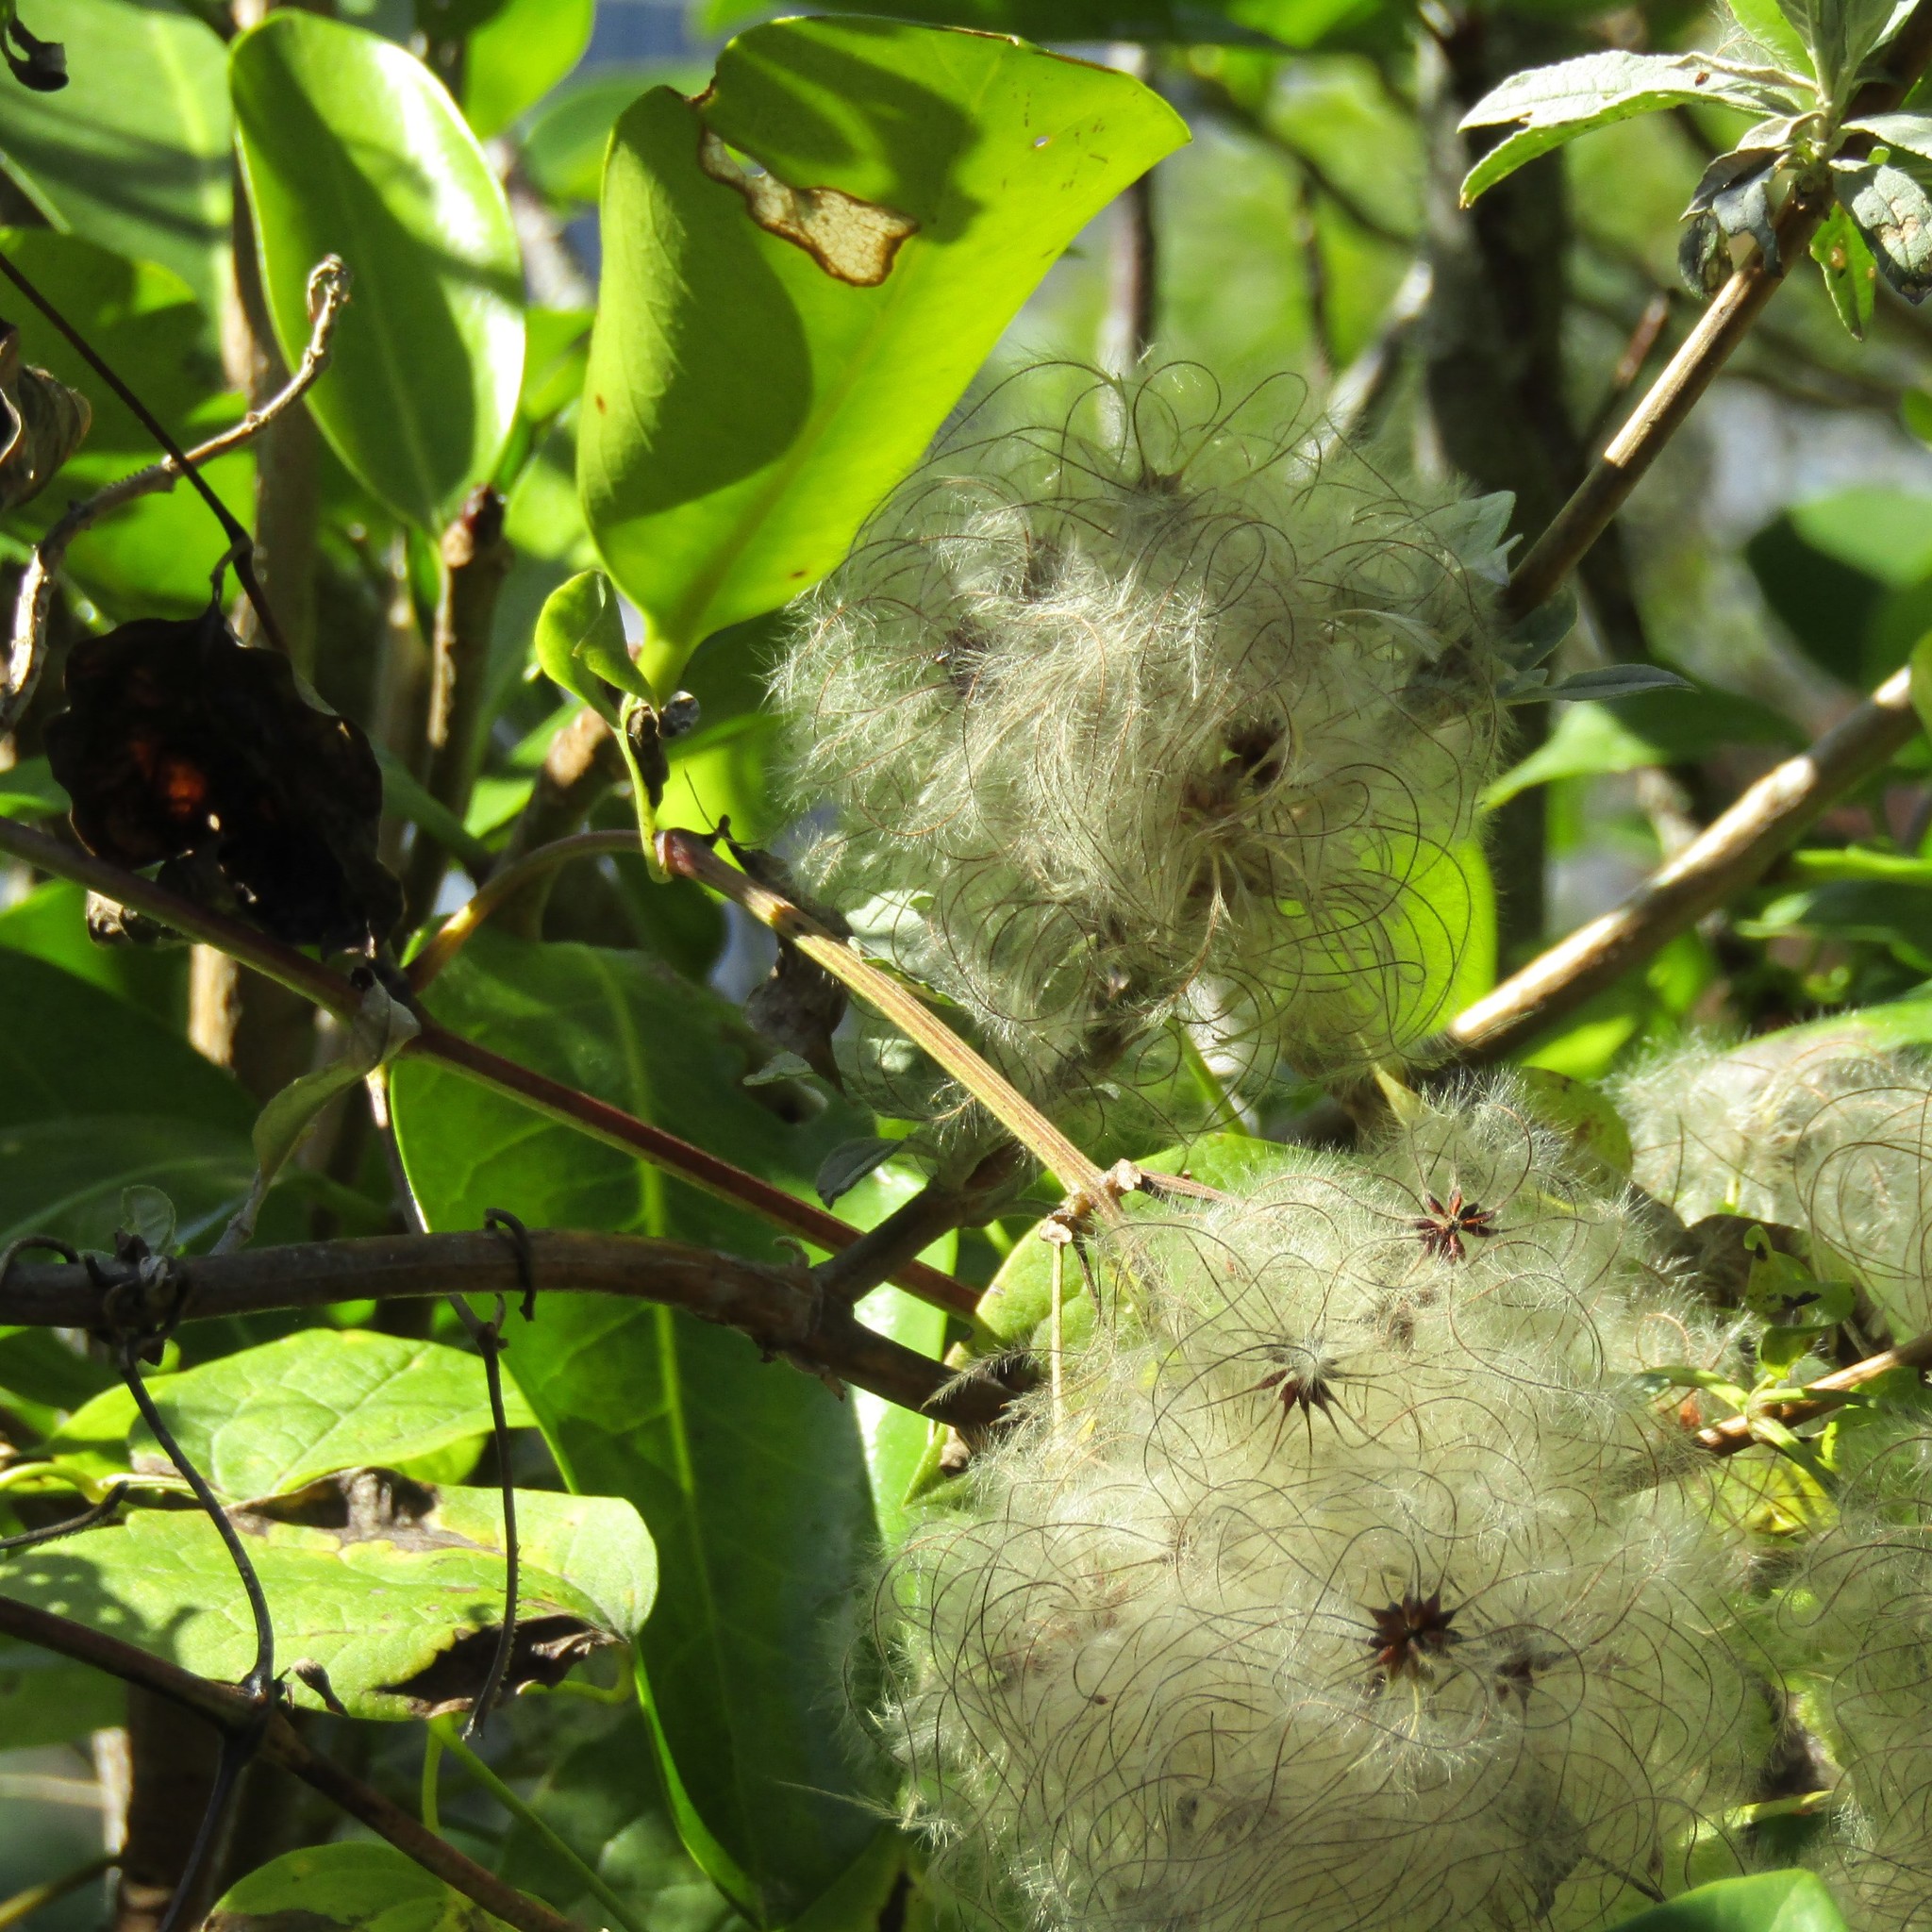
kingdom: Plantae
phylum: Tracheophyta
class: Magnoliopsida
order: Ranunculales
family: Ranunculaceae
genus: Clematis
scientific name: Clematis vitalba
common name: Evergreen clematis
